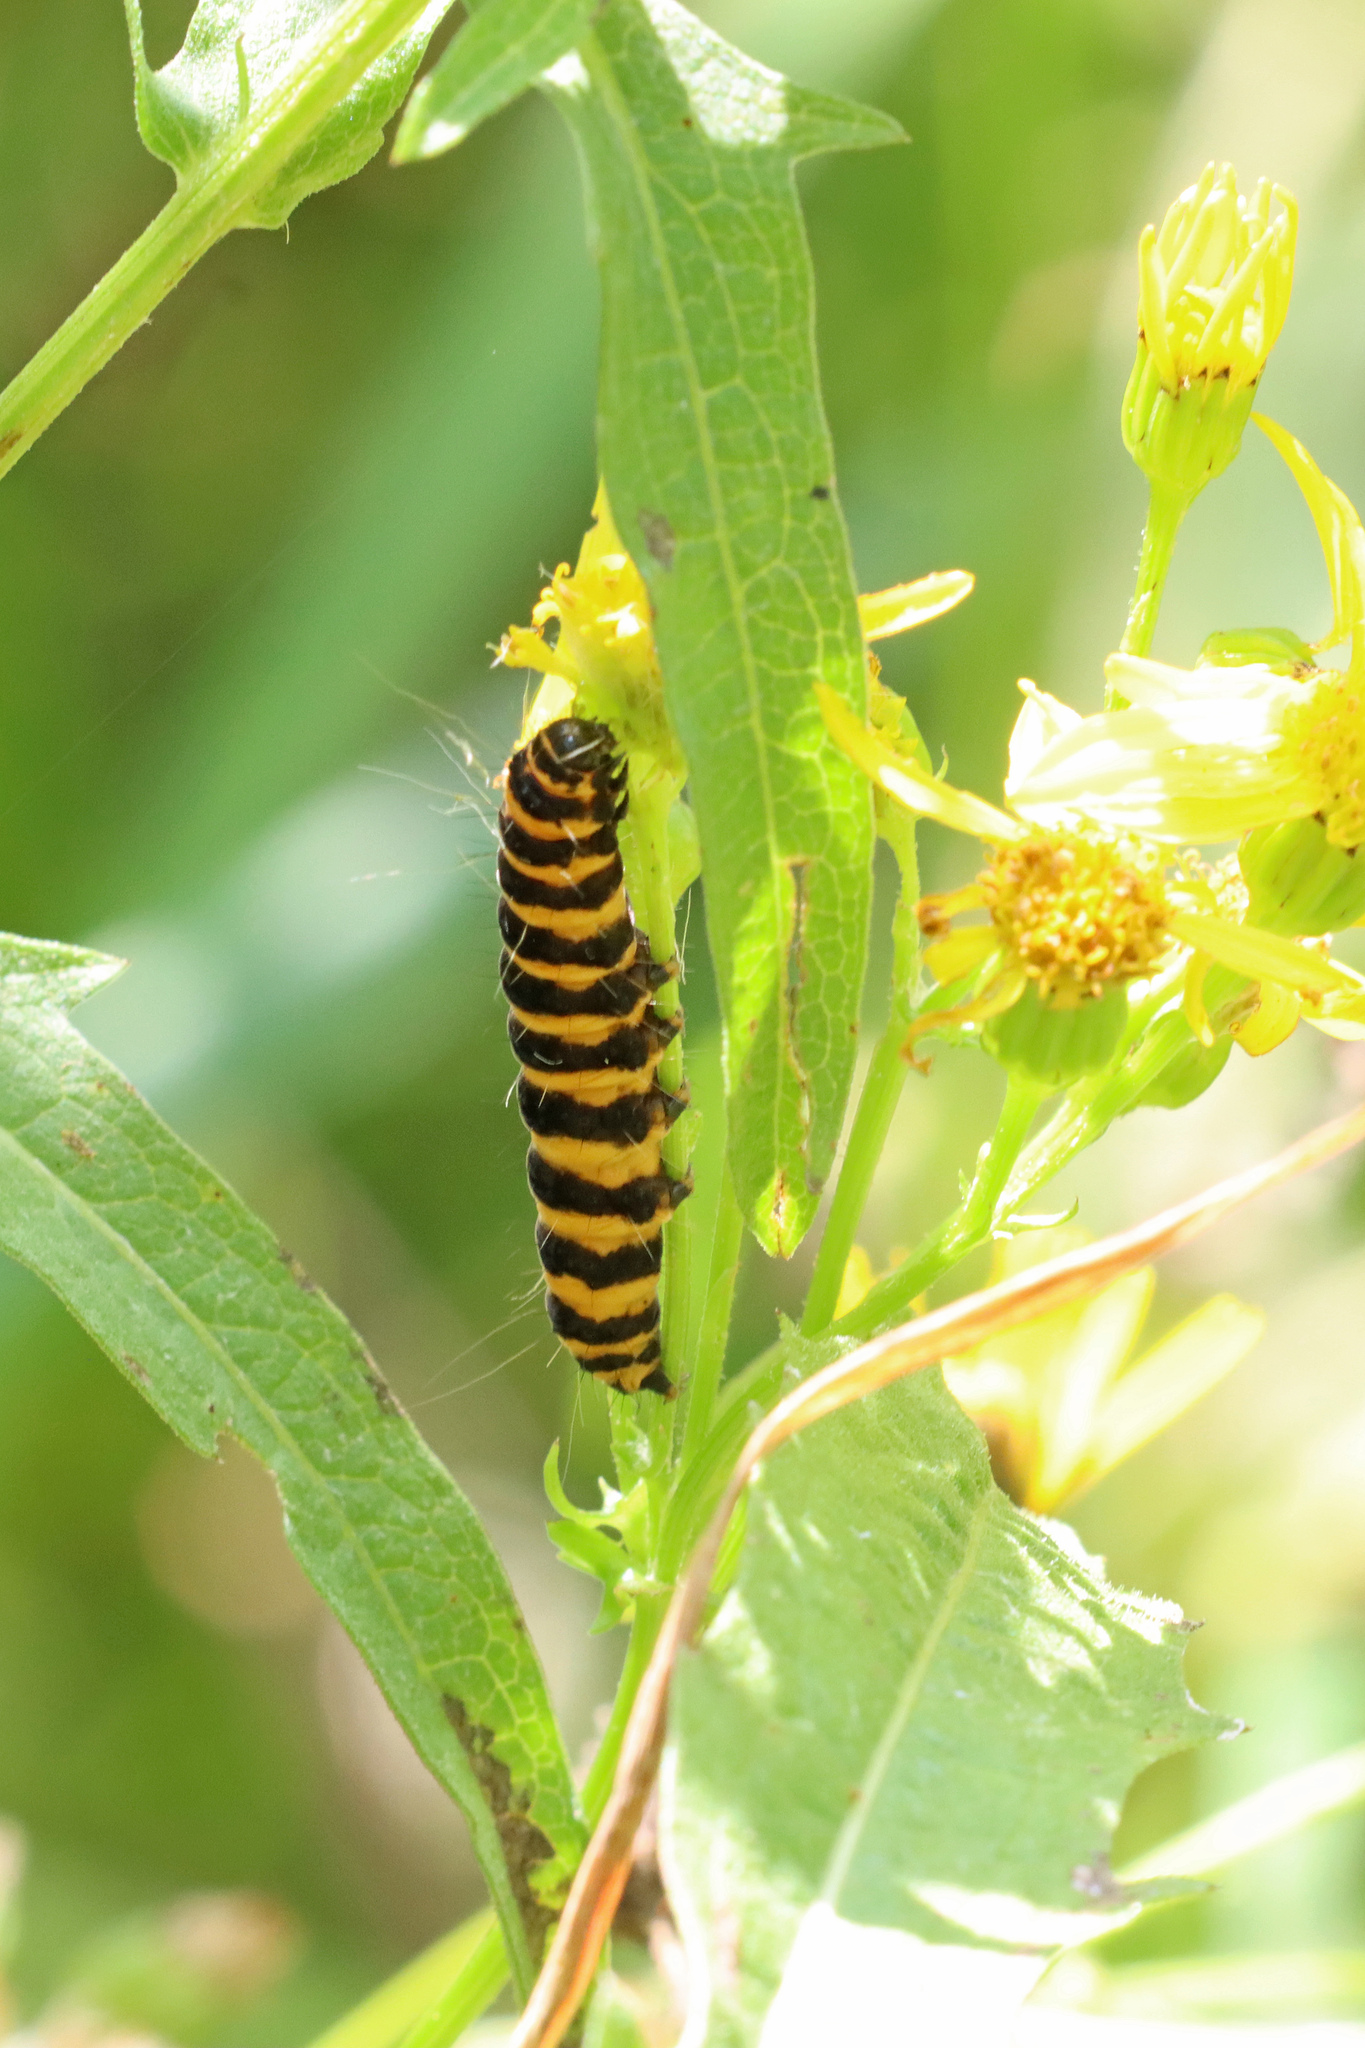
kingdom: Animalia
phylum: Arthropoda
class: Insecta
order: Lepidoptera
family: Erebidae
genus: Tyria
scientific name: Tyria jacobaeae
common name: Cinnabar
